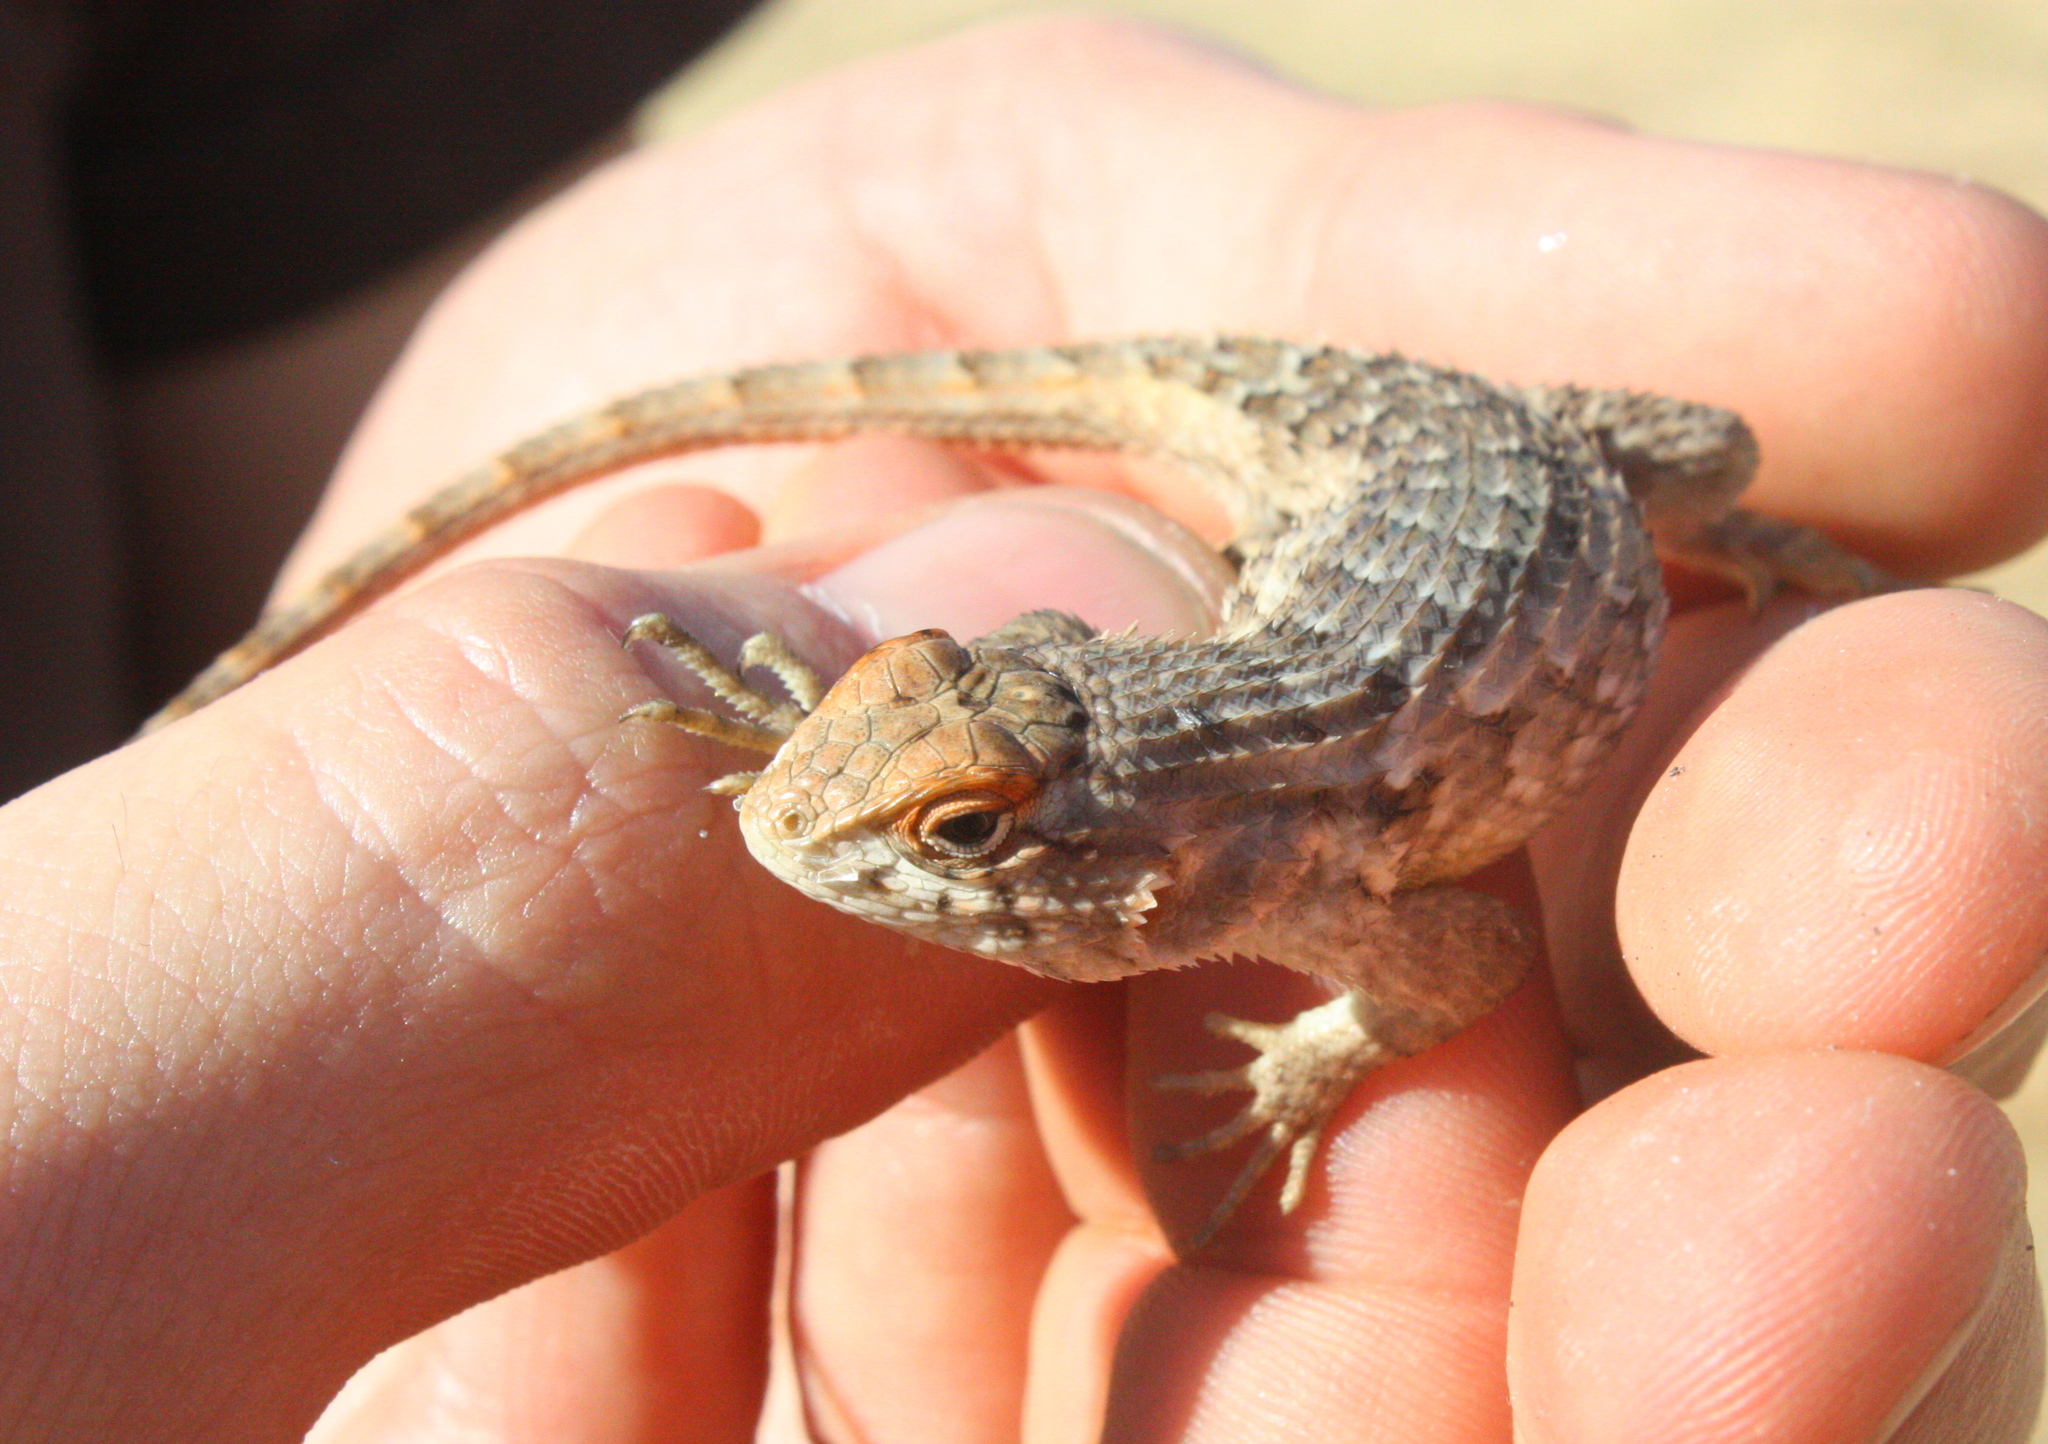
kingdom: Animalia
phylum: Chordata
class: Squamata
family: Phrynosomatidae
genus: Sceloporus
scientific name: Sceloporus horridus
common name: Few-pored rough lizard
